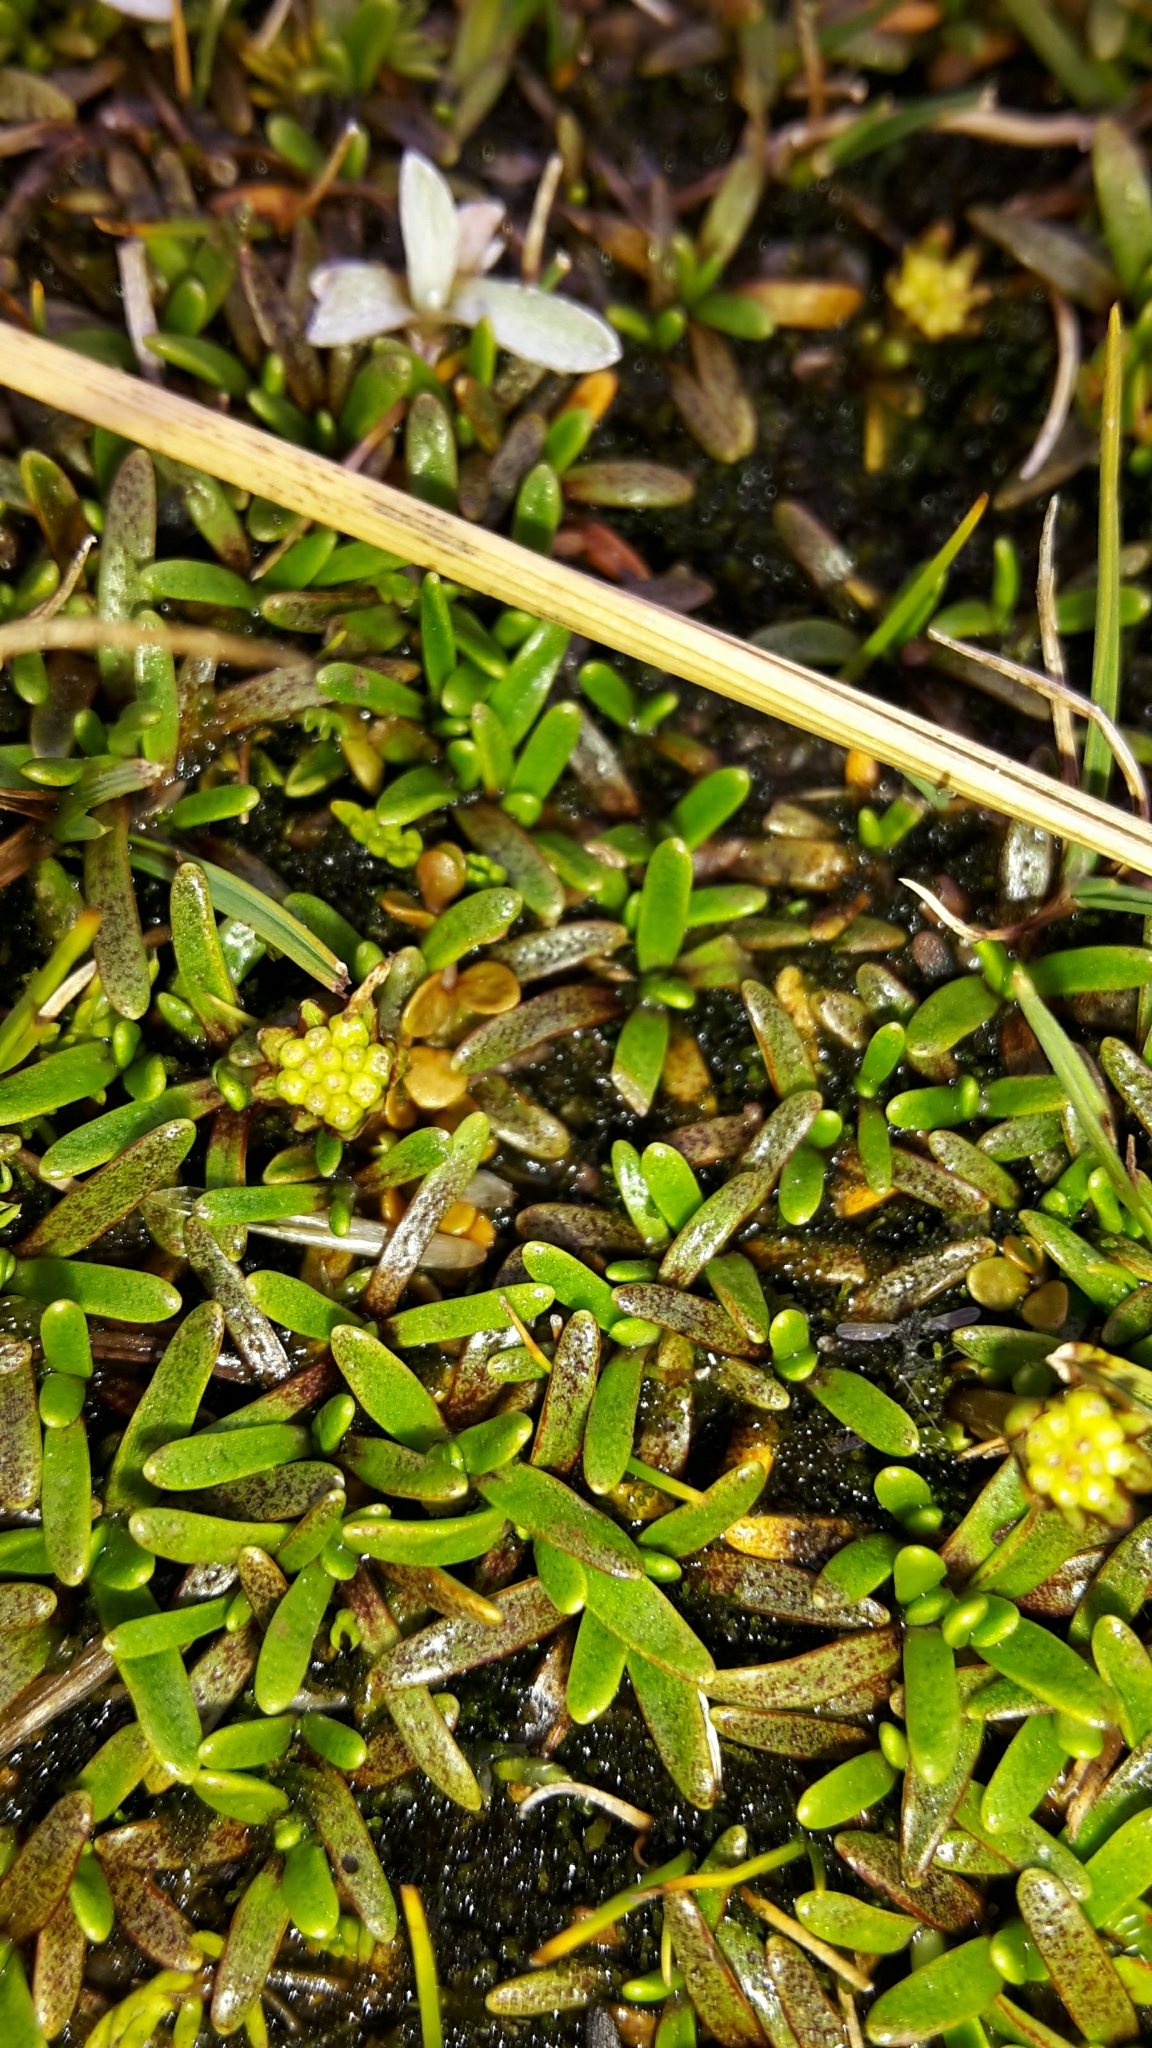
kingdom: Plantae
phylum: Tracheophyta
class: Magnoliopsida
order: Asterales
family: Asteraceae
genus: Abrotanella
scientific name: Abrotanella caespitosa
